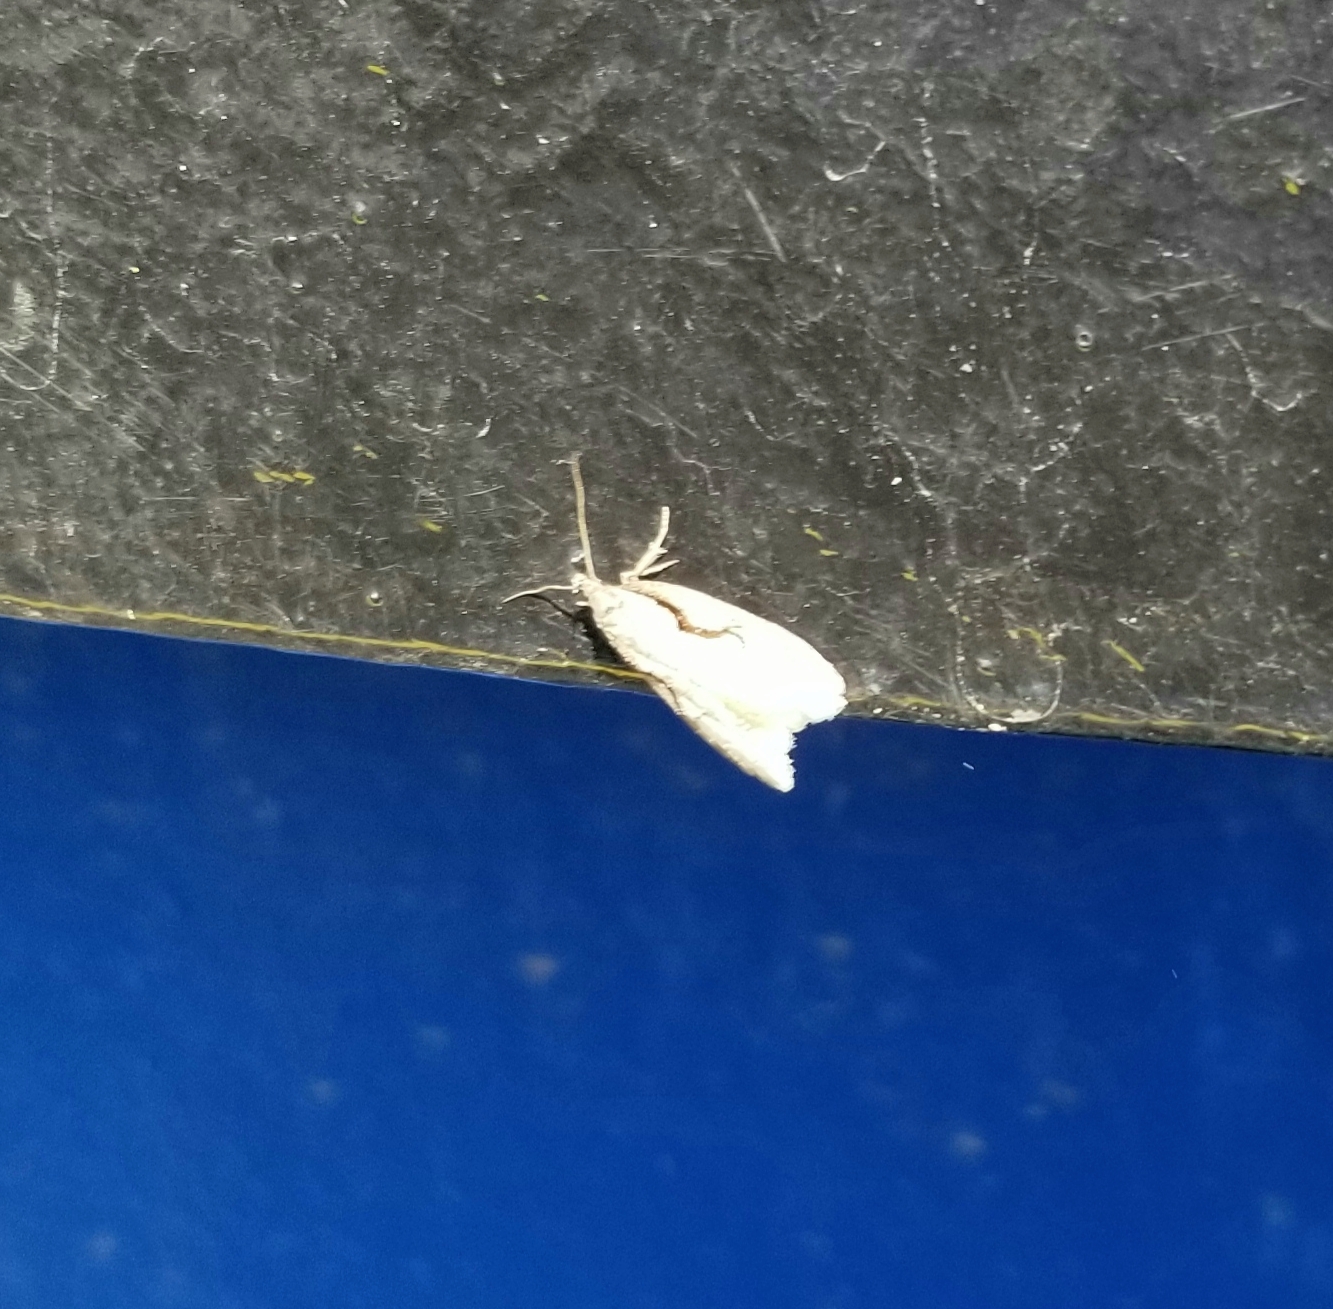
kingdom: Animalia
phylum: Arthropoda
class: Insecta
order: Lepidoptera
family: Depressariidae
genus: Semioscopis
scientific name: Semioscopis packardella
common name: Packard's concealer moth
